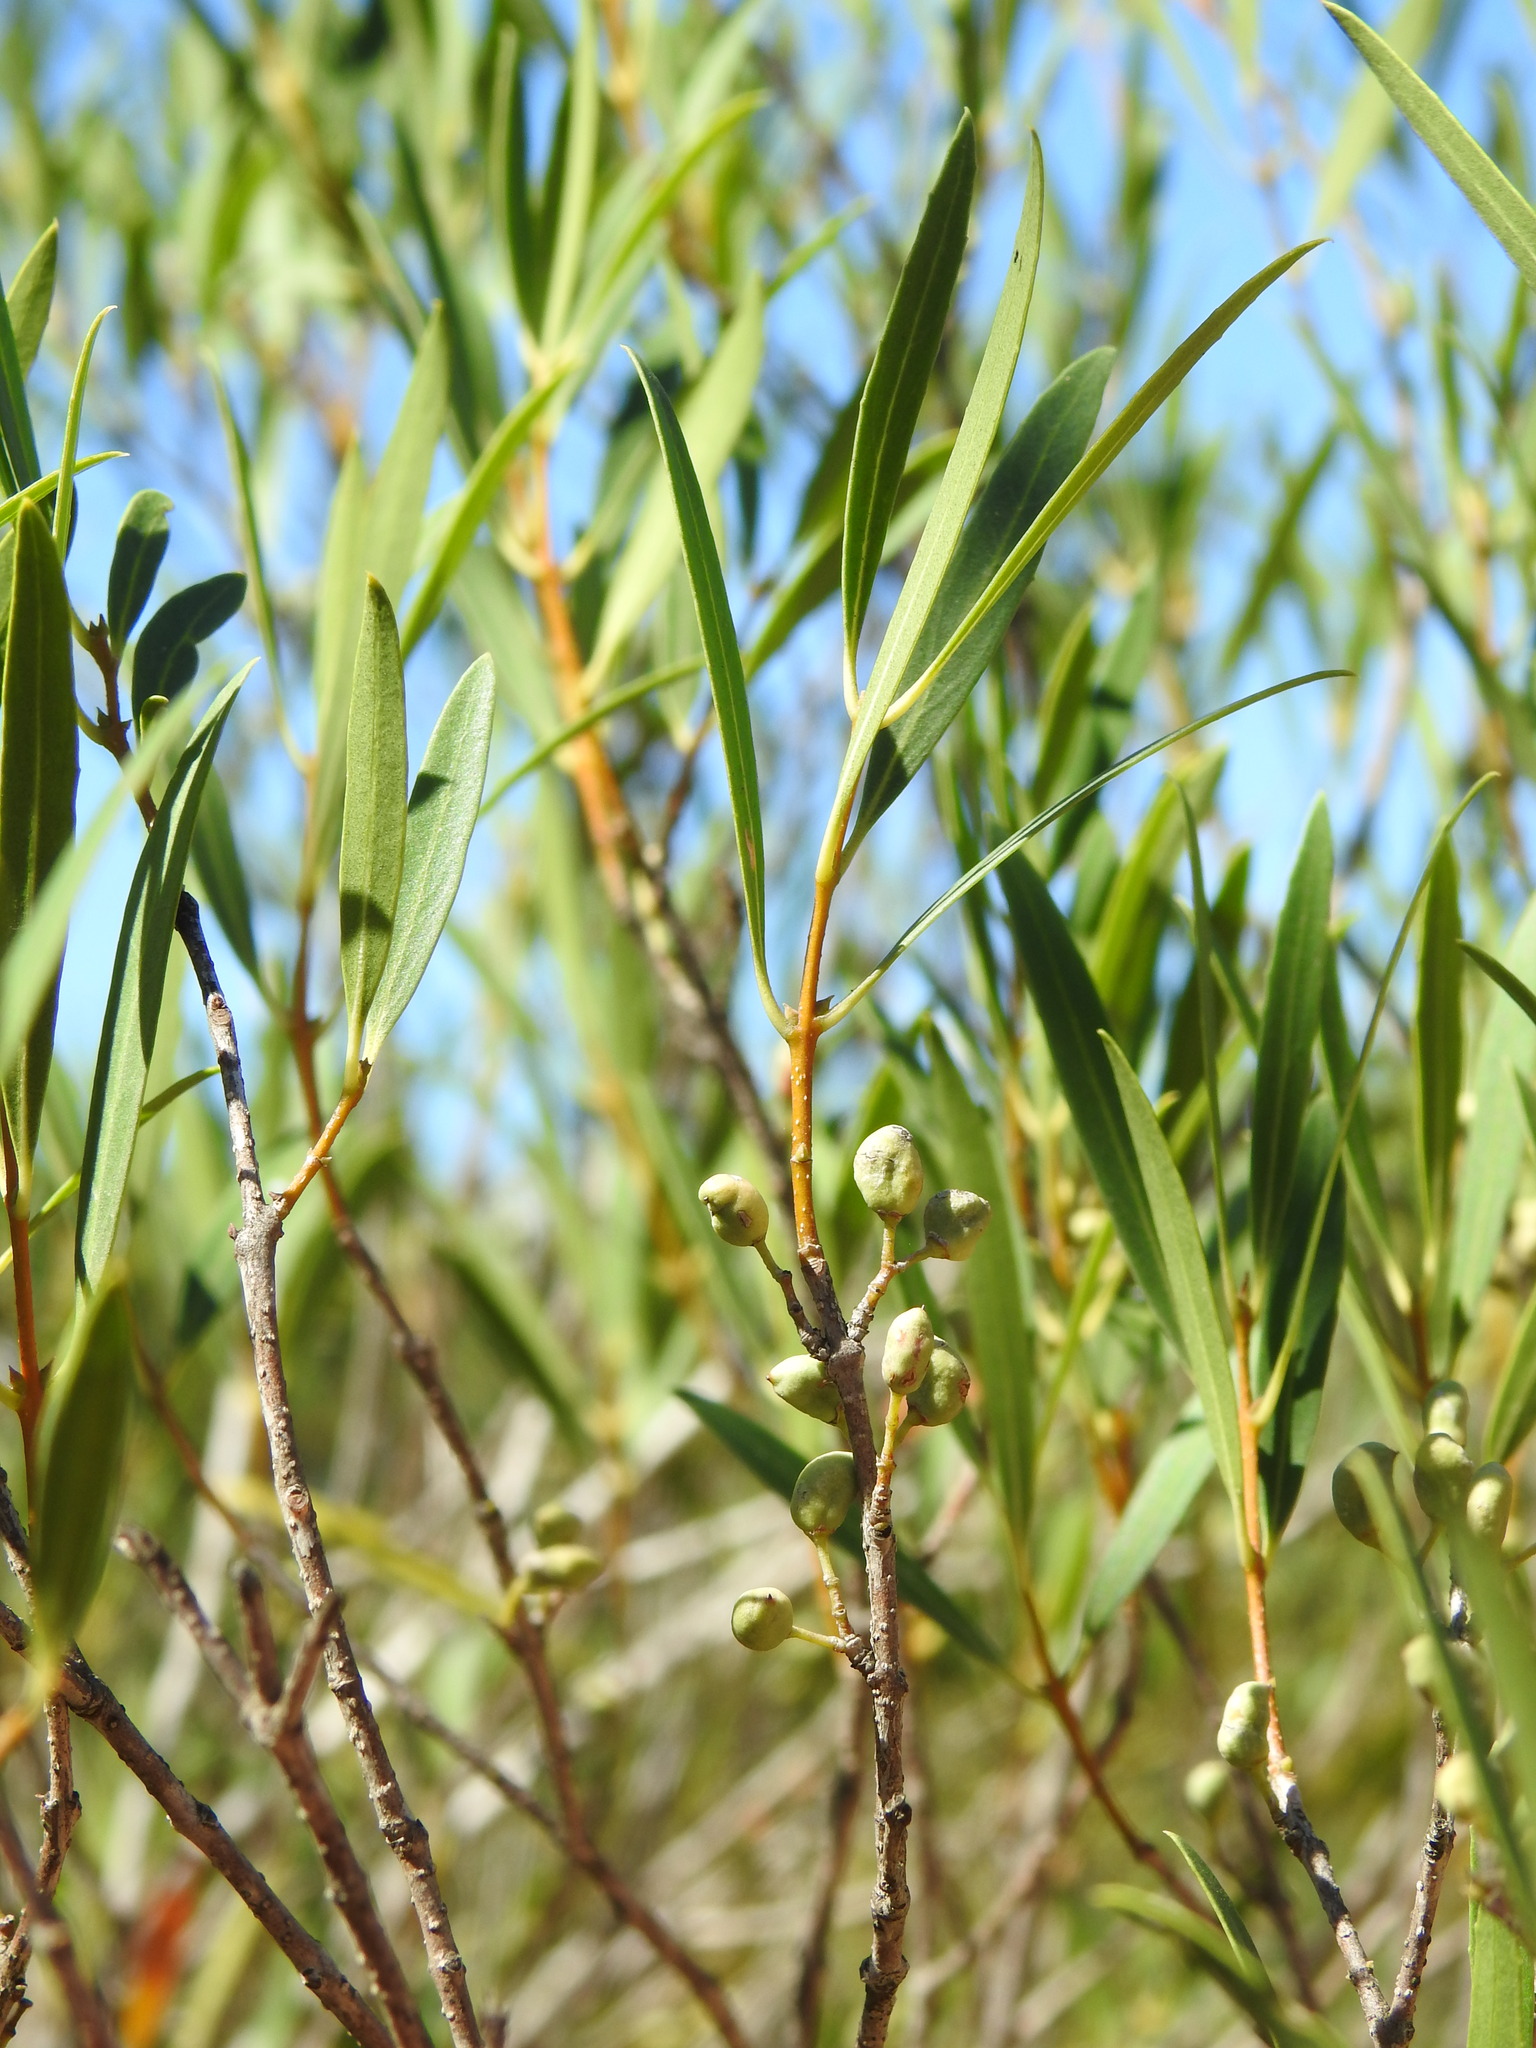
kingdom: Plantae
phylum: Tracheophyta
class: Magnoliopsida
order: Lamiales
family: Oleaceae
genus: Phillyrea
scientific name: Phillyrea angustifolia
